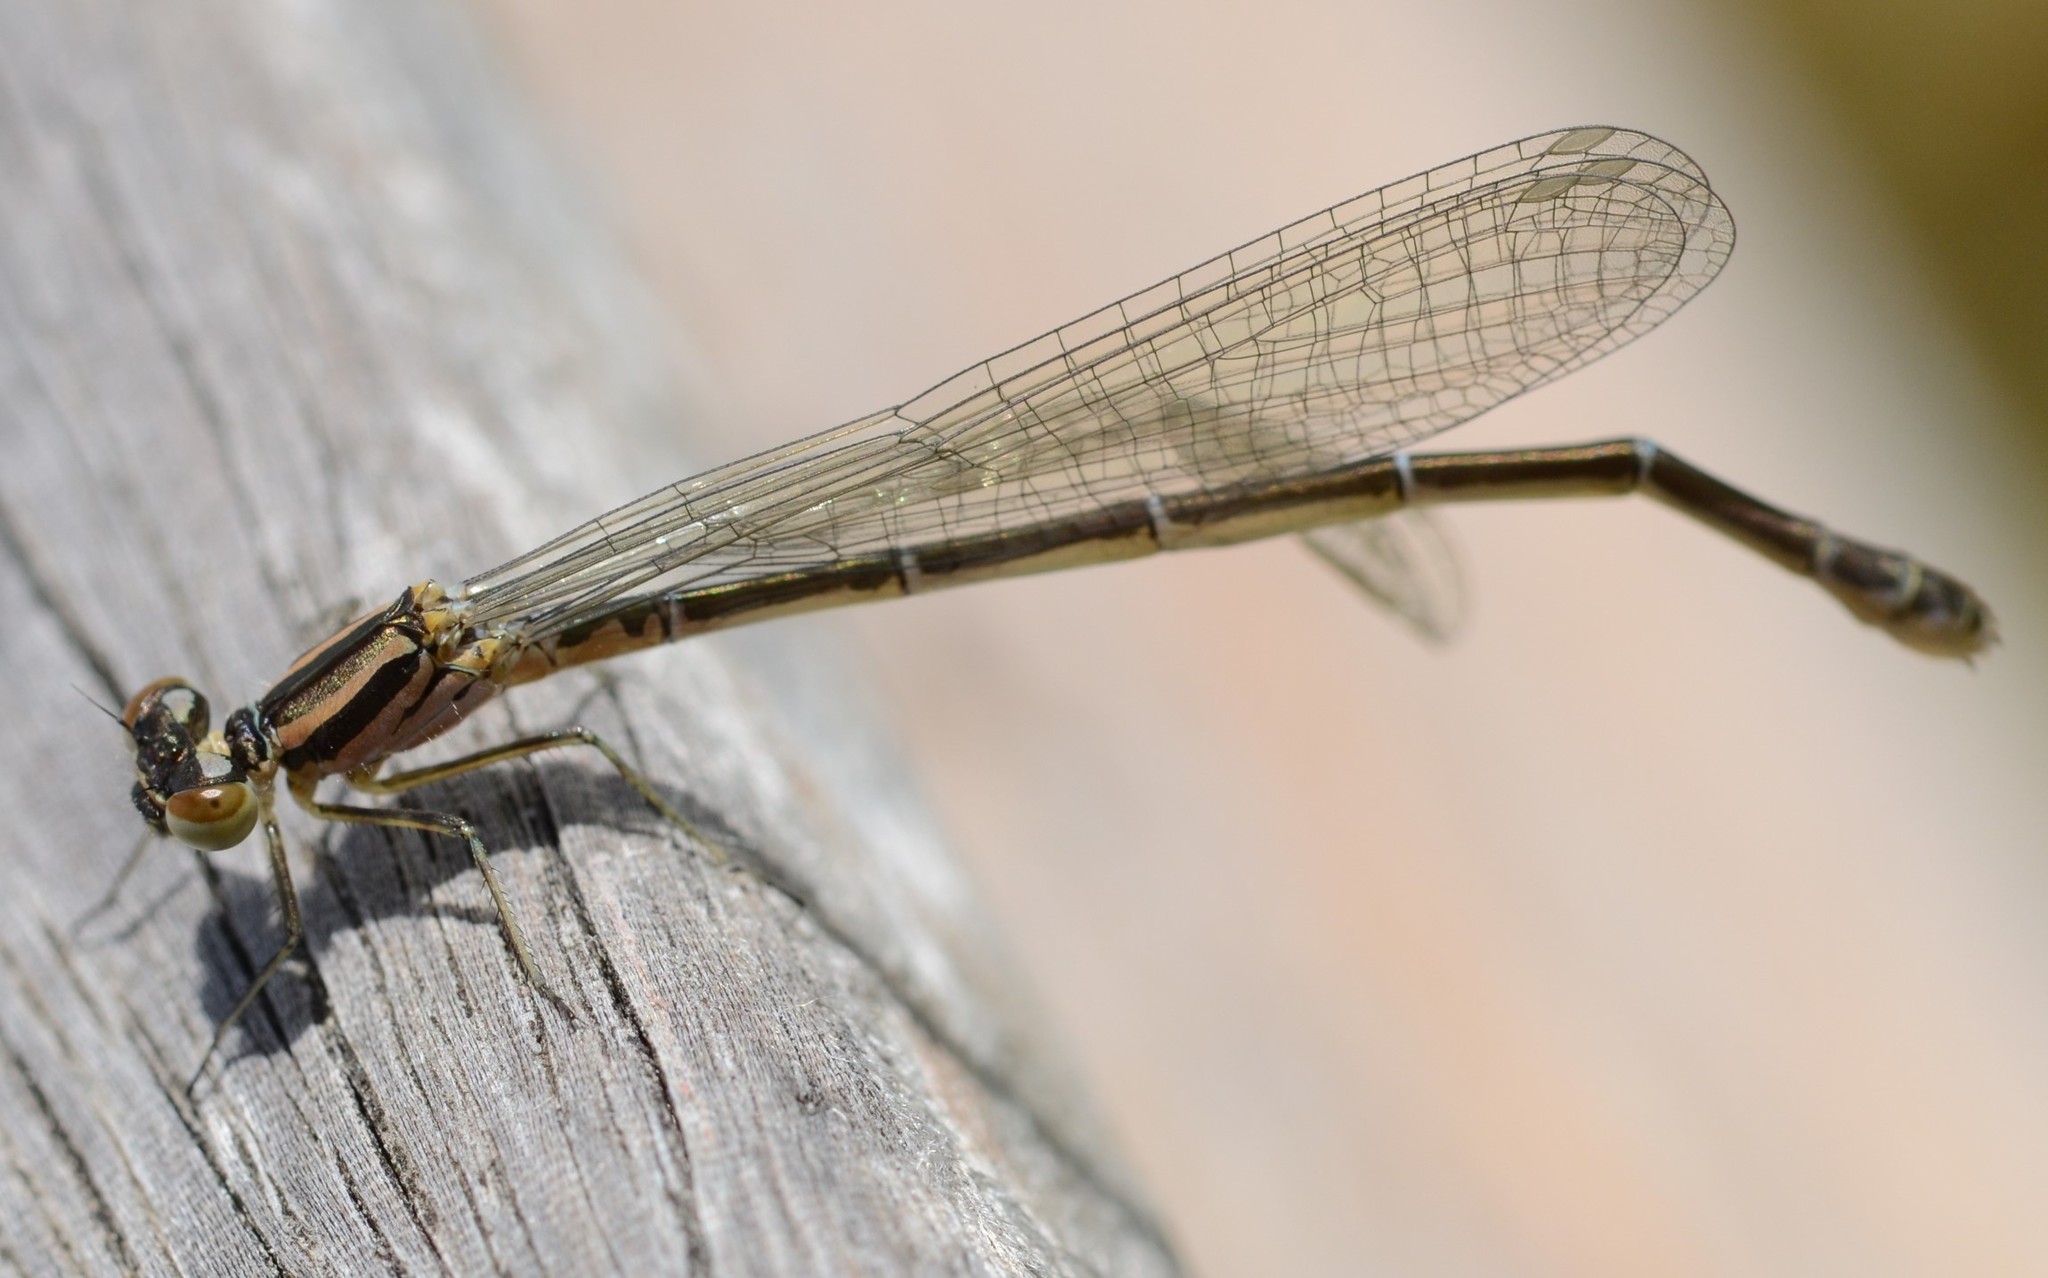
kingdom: Animalia
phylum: Arthropoda
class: Insecta
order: Odonata
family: Coenagrionidae
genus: Coenagrion
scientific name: Coenagrion puella
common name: Azure damselfly
